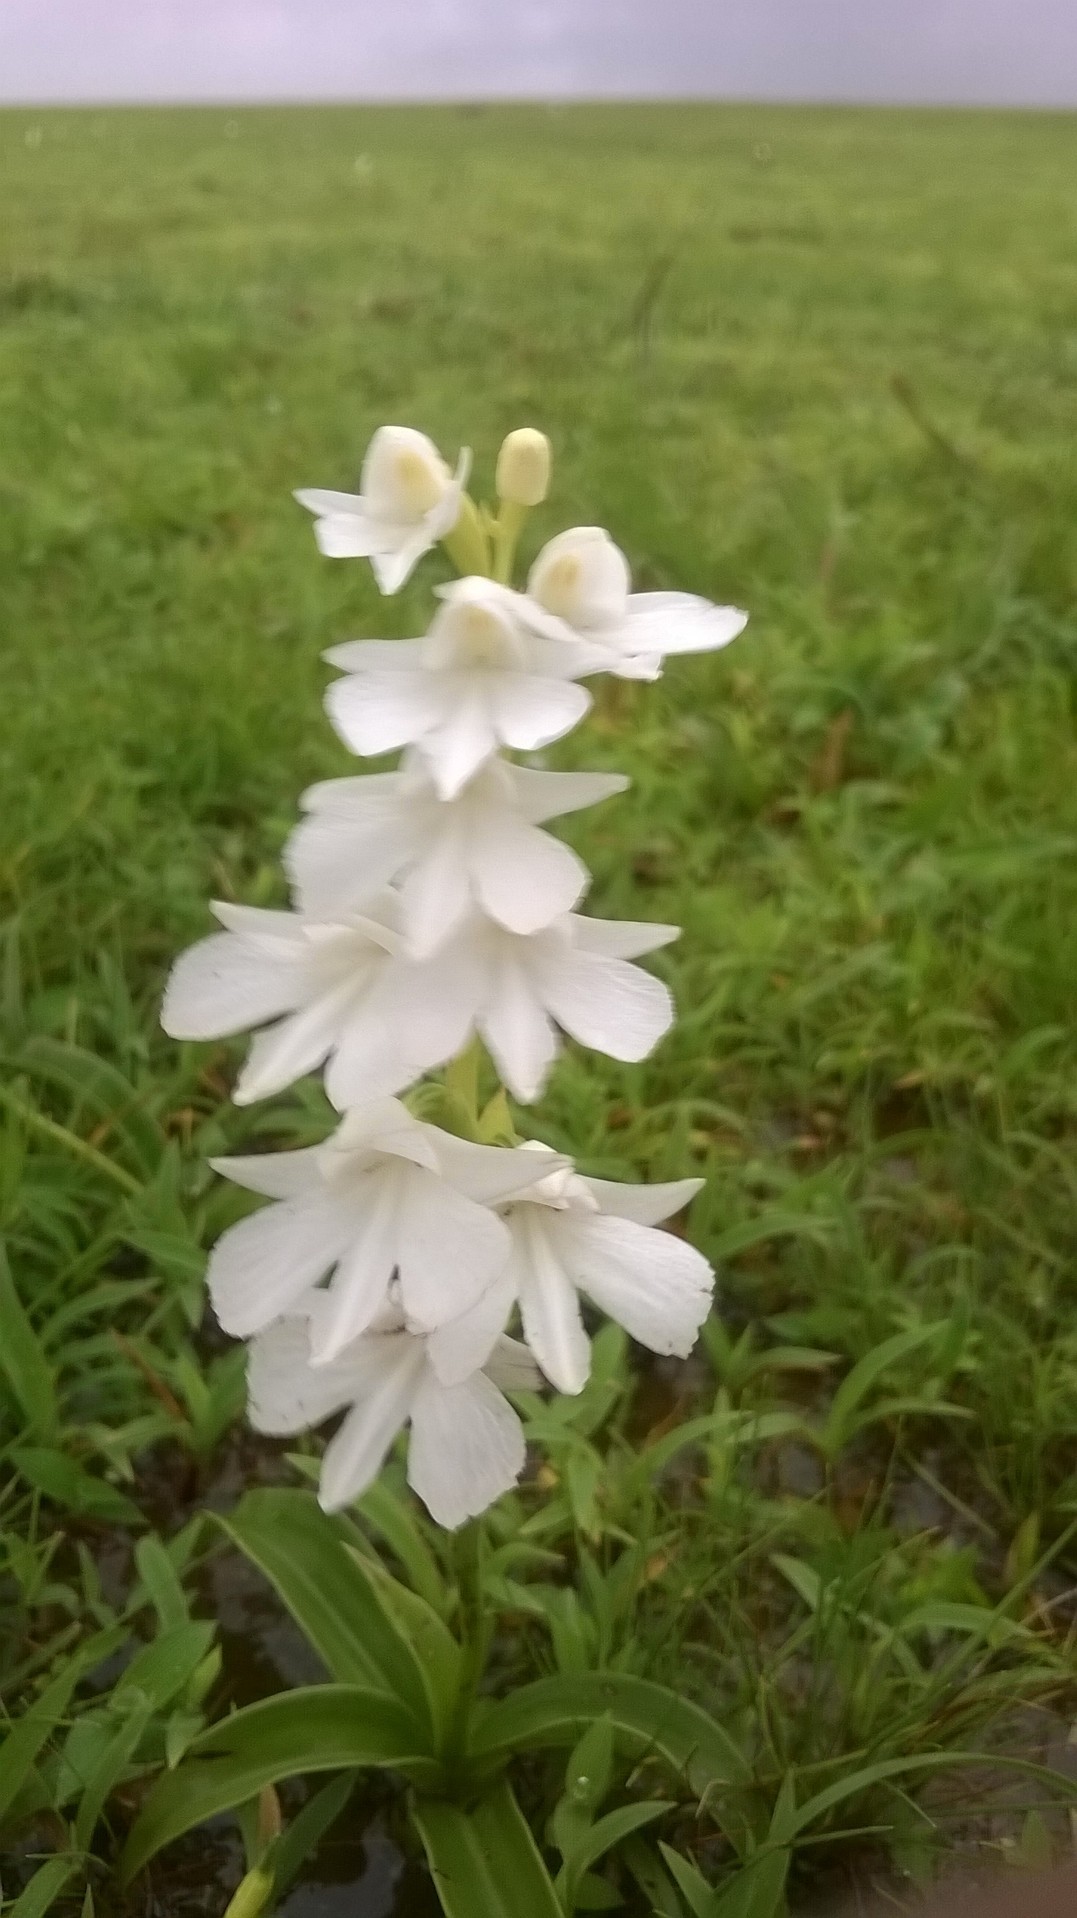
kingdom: Plantae
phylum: Tracheophyta
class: Liliopsida
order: Asparagales
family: Orchidaceae
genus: Habenaria
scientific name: Habenaria suaveolens
